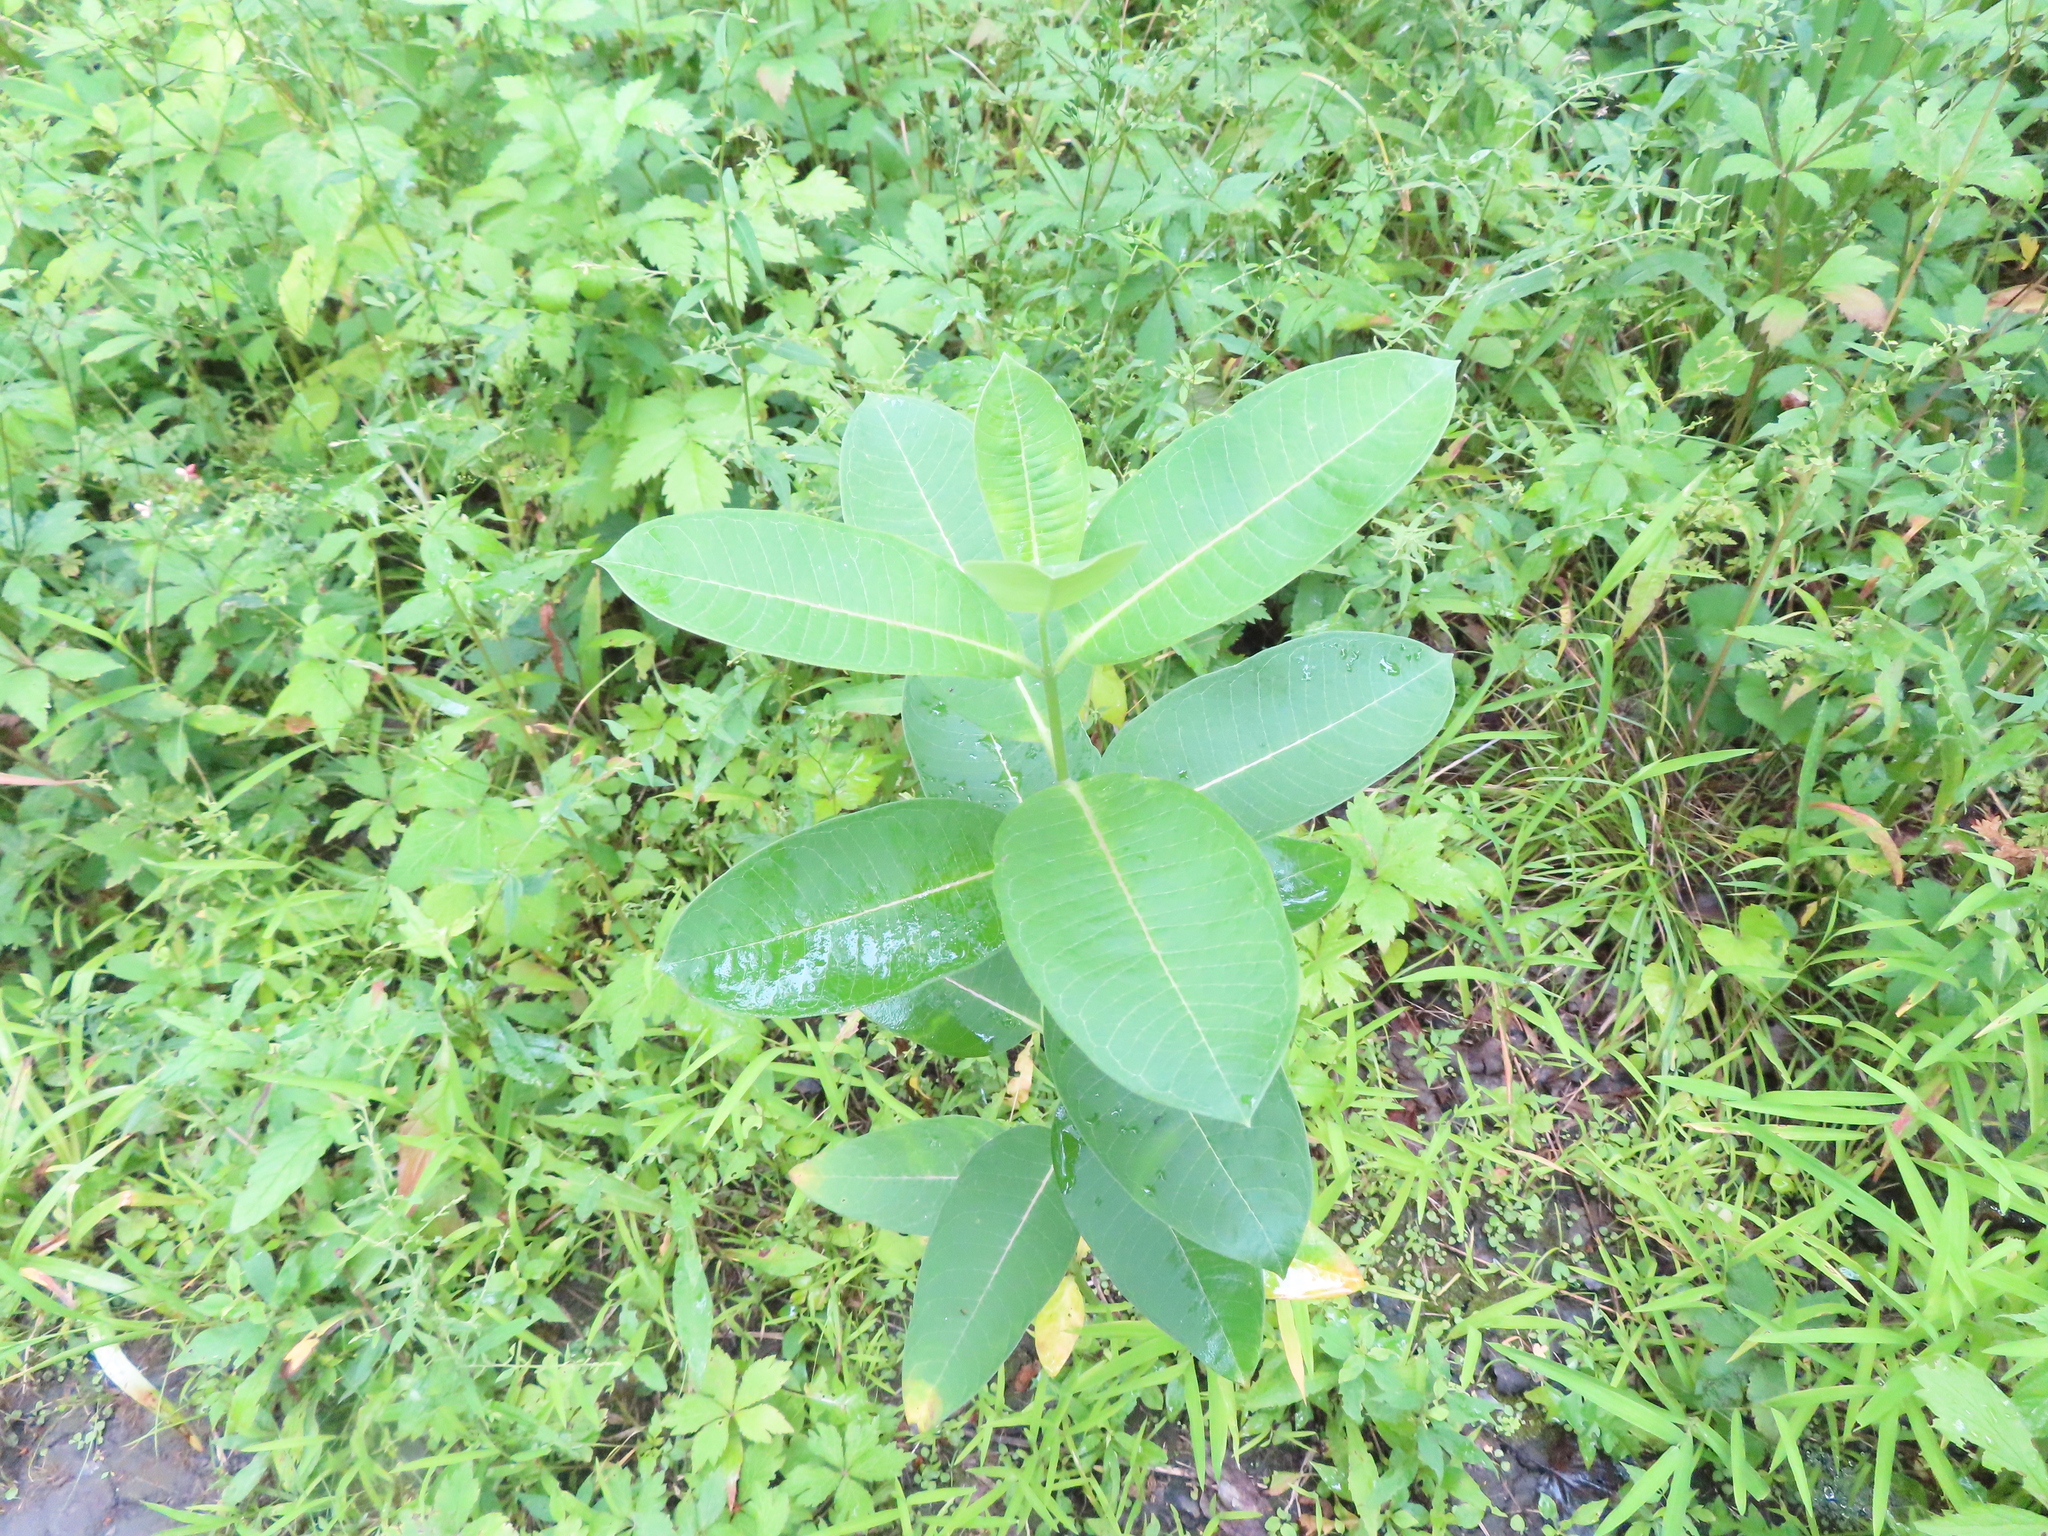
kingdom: Plantae
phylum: Tracheophyta
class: Magnoliopsida
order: Gentianales
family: Apocynaceae
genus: Asclepias
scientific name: Asclepias syriaca
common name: Common milkweed
